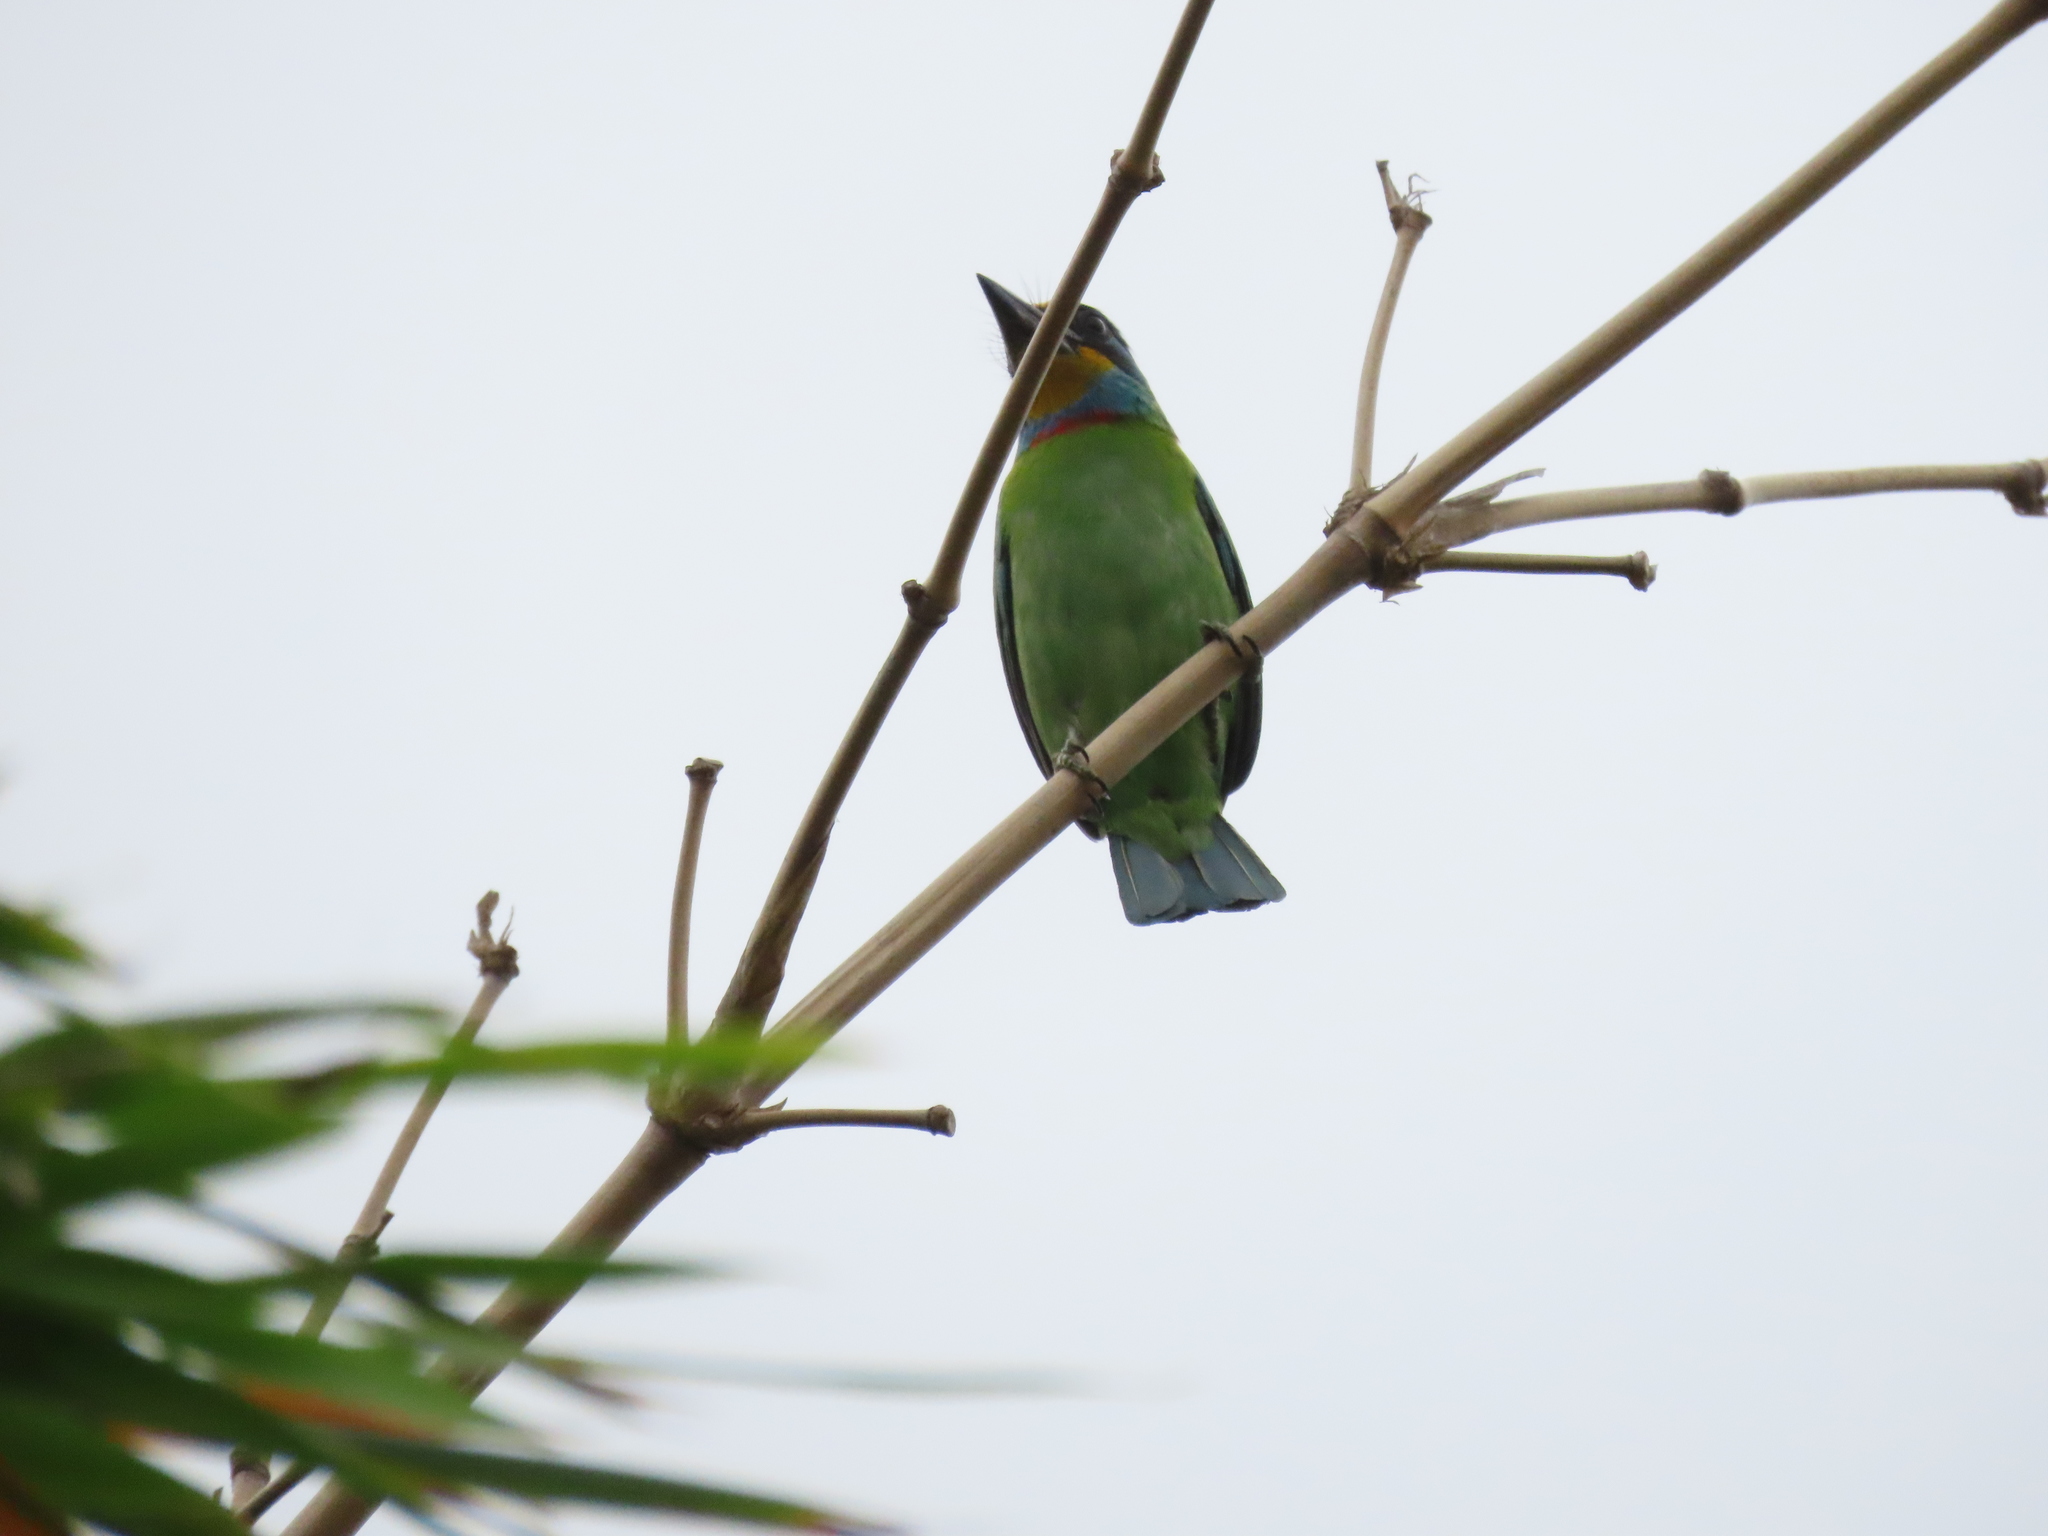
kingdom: Animalia
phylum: Chordata
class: Aves
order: Piciformes
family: Megalaimidae
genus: Psilopogon
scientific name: Psilopogon nuchalis
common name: Taiwan barbet
